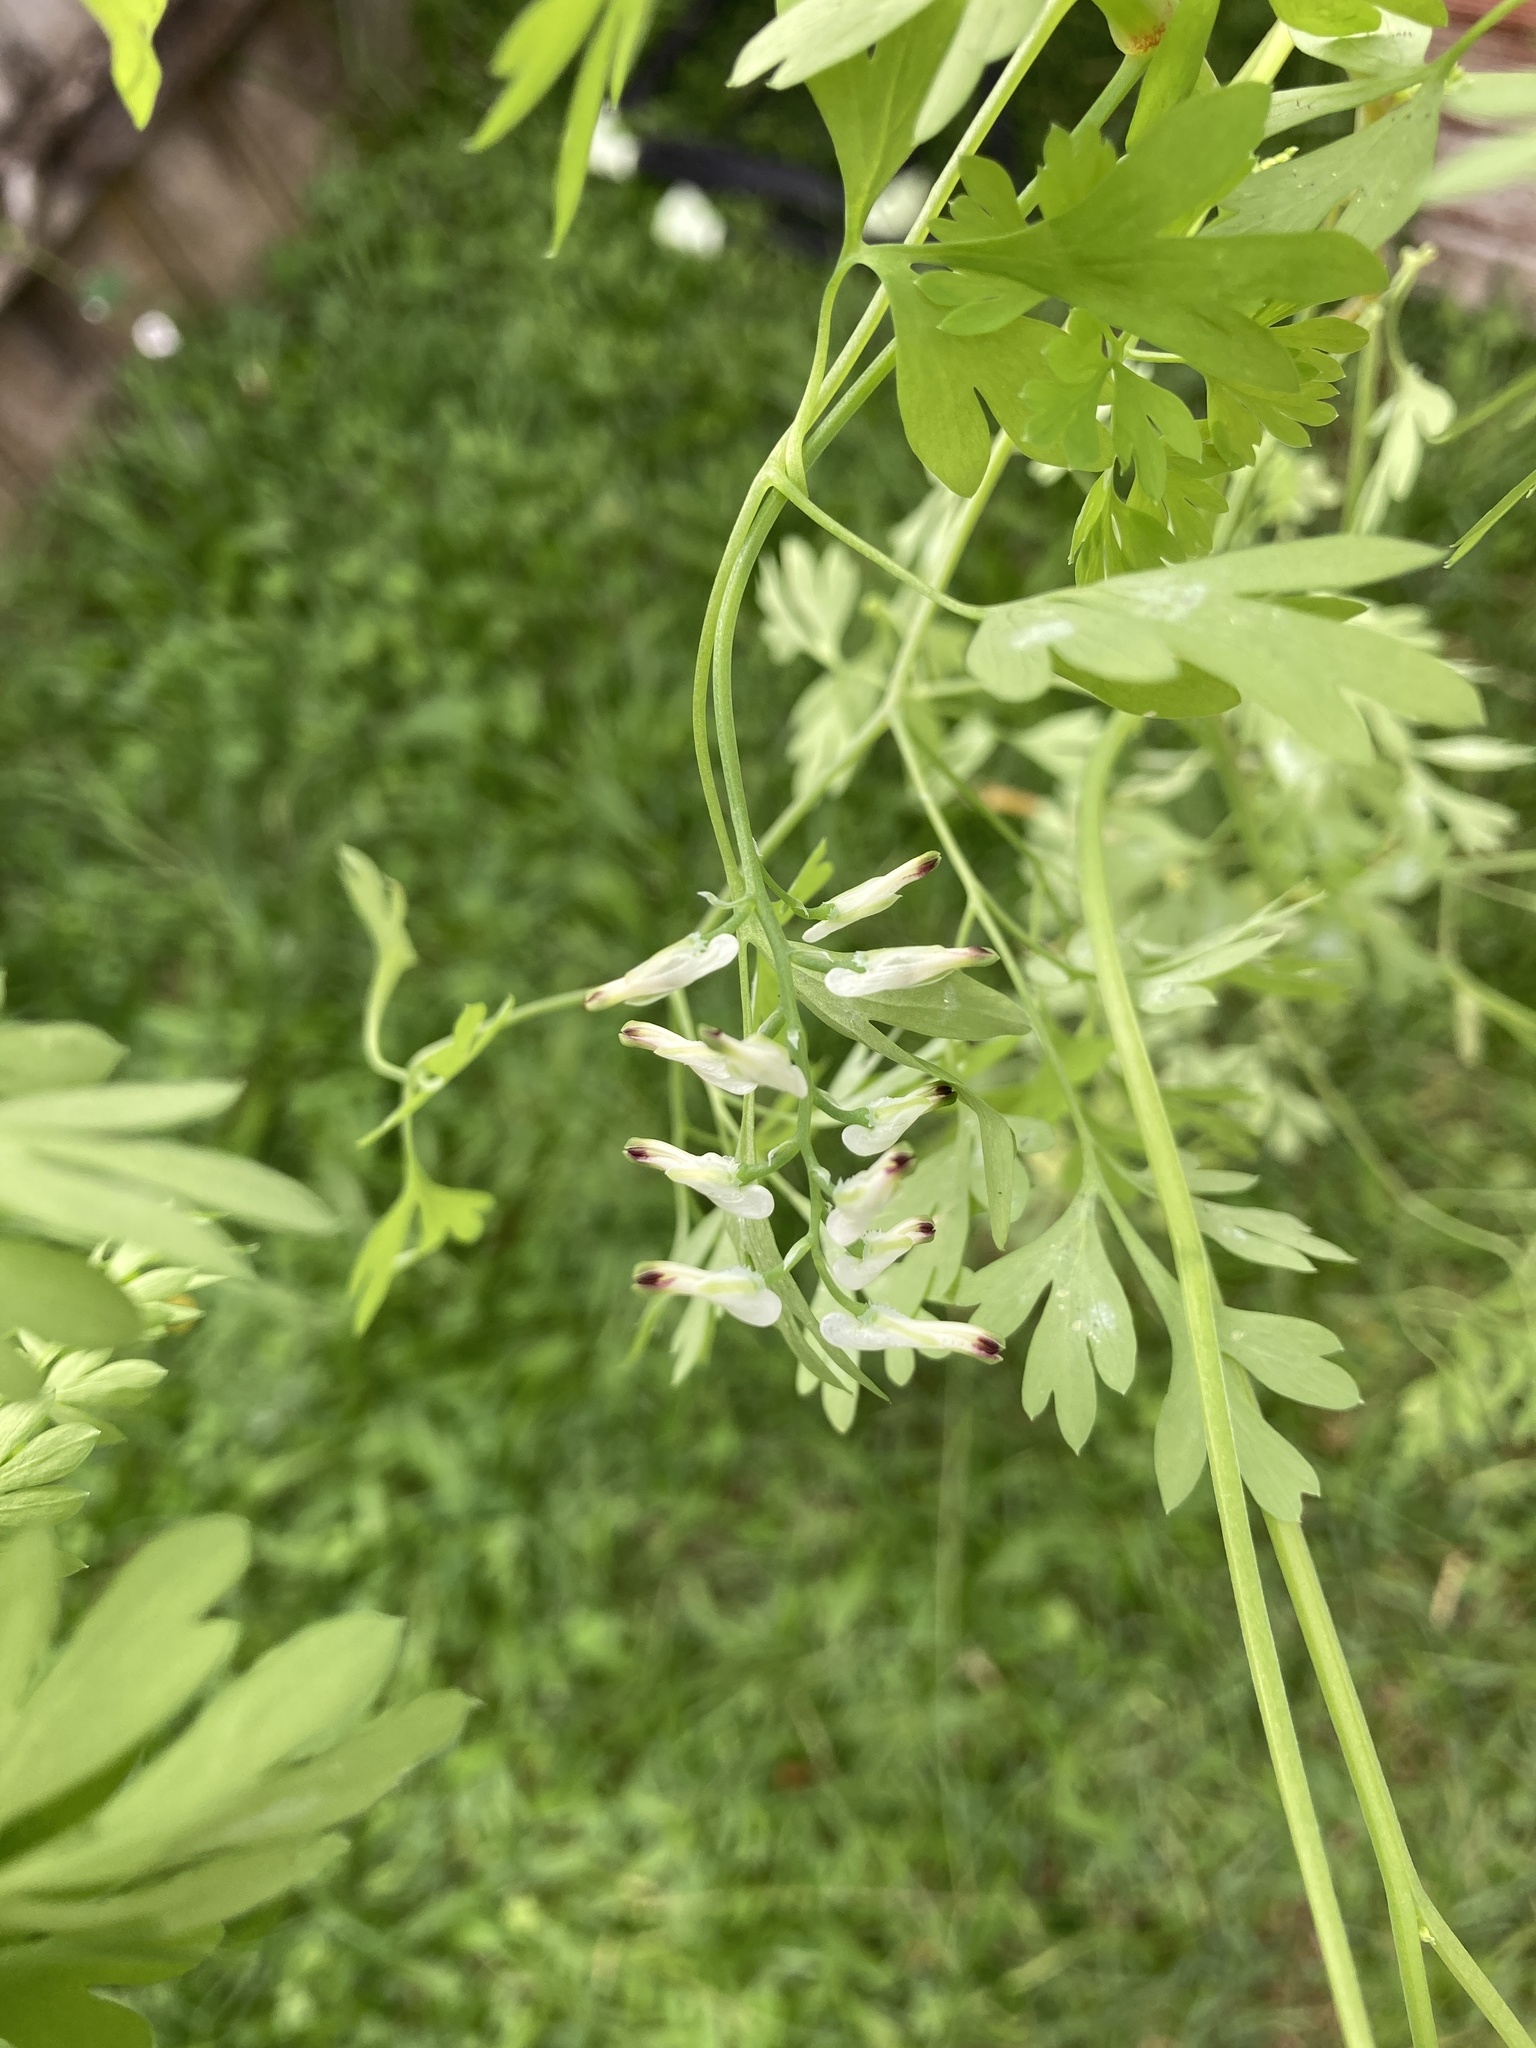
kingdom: Plantae
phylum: Tracheophyta
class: Magnoliopsida
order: Ranunculales
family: Papaveraceae
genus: Fumaria
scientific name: Fumaria capreolata
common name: White ramping-fumitory
